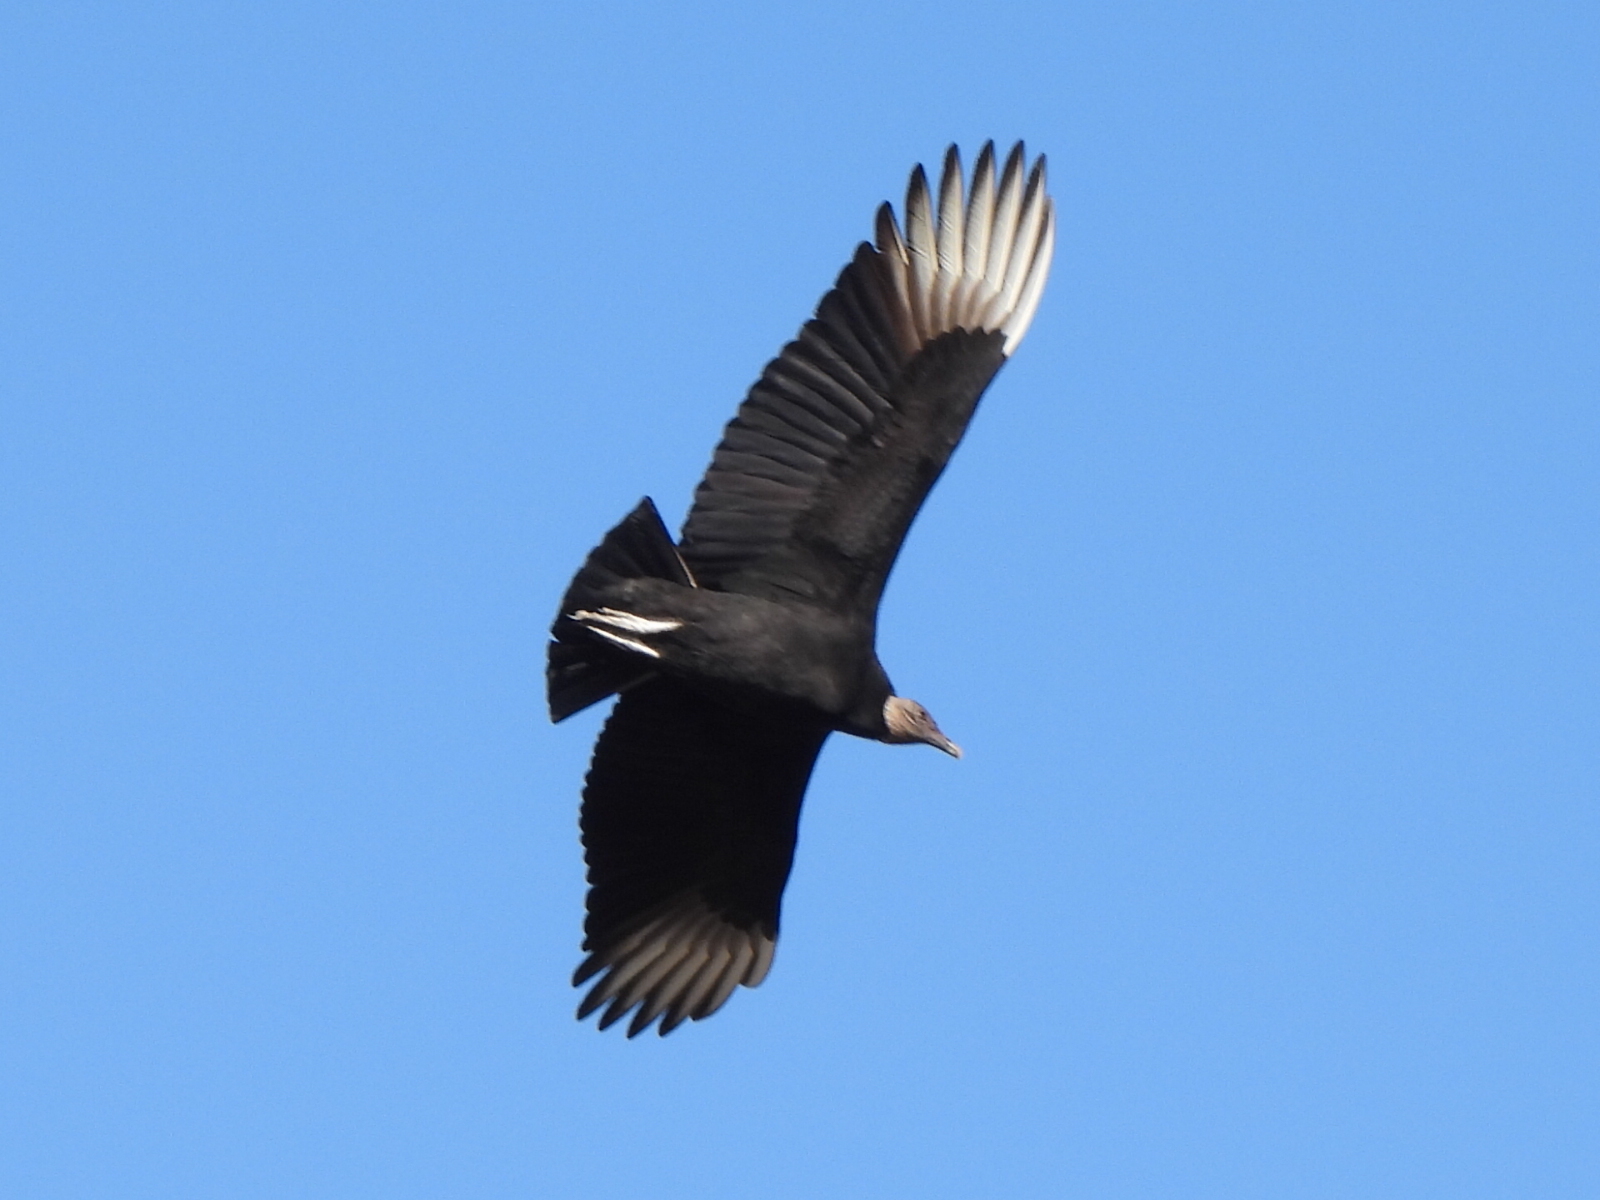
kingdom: Animalia
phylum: Chordata
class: Aves
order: Accipitriformes
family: Cathartidae
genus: Coragyps
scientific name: Coragyps atratus
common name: Black vulture
